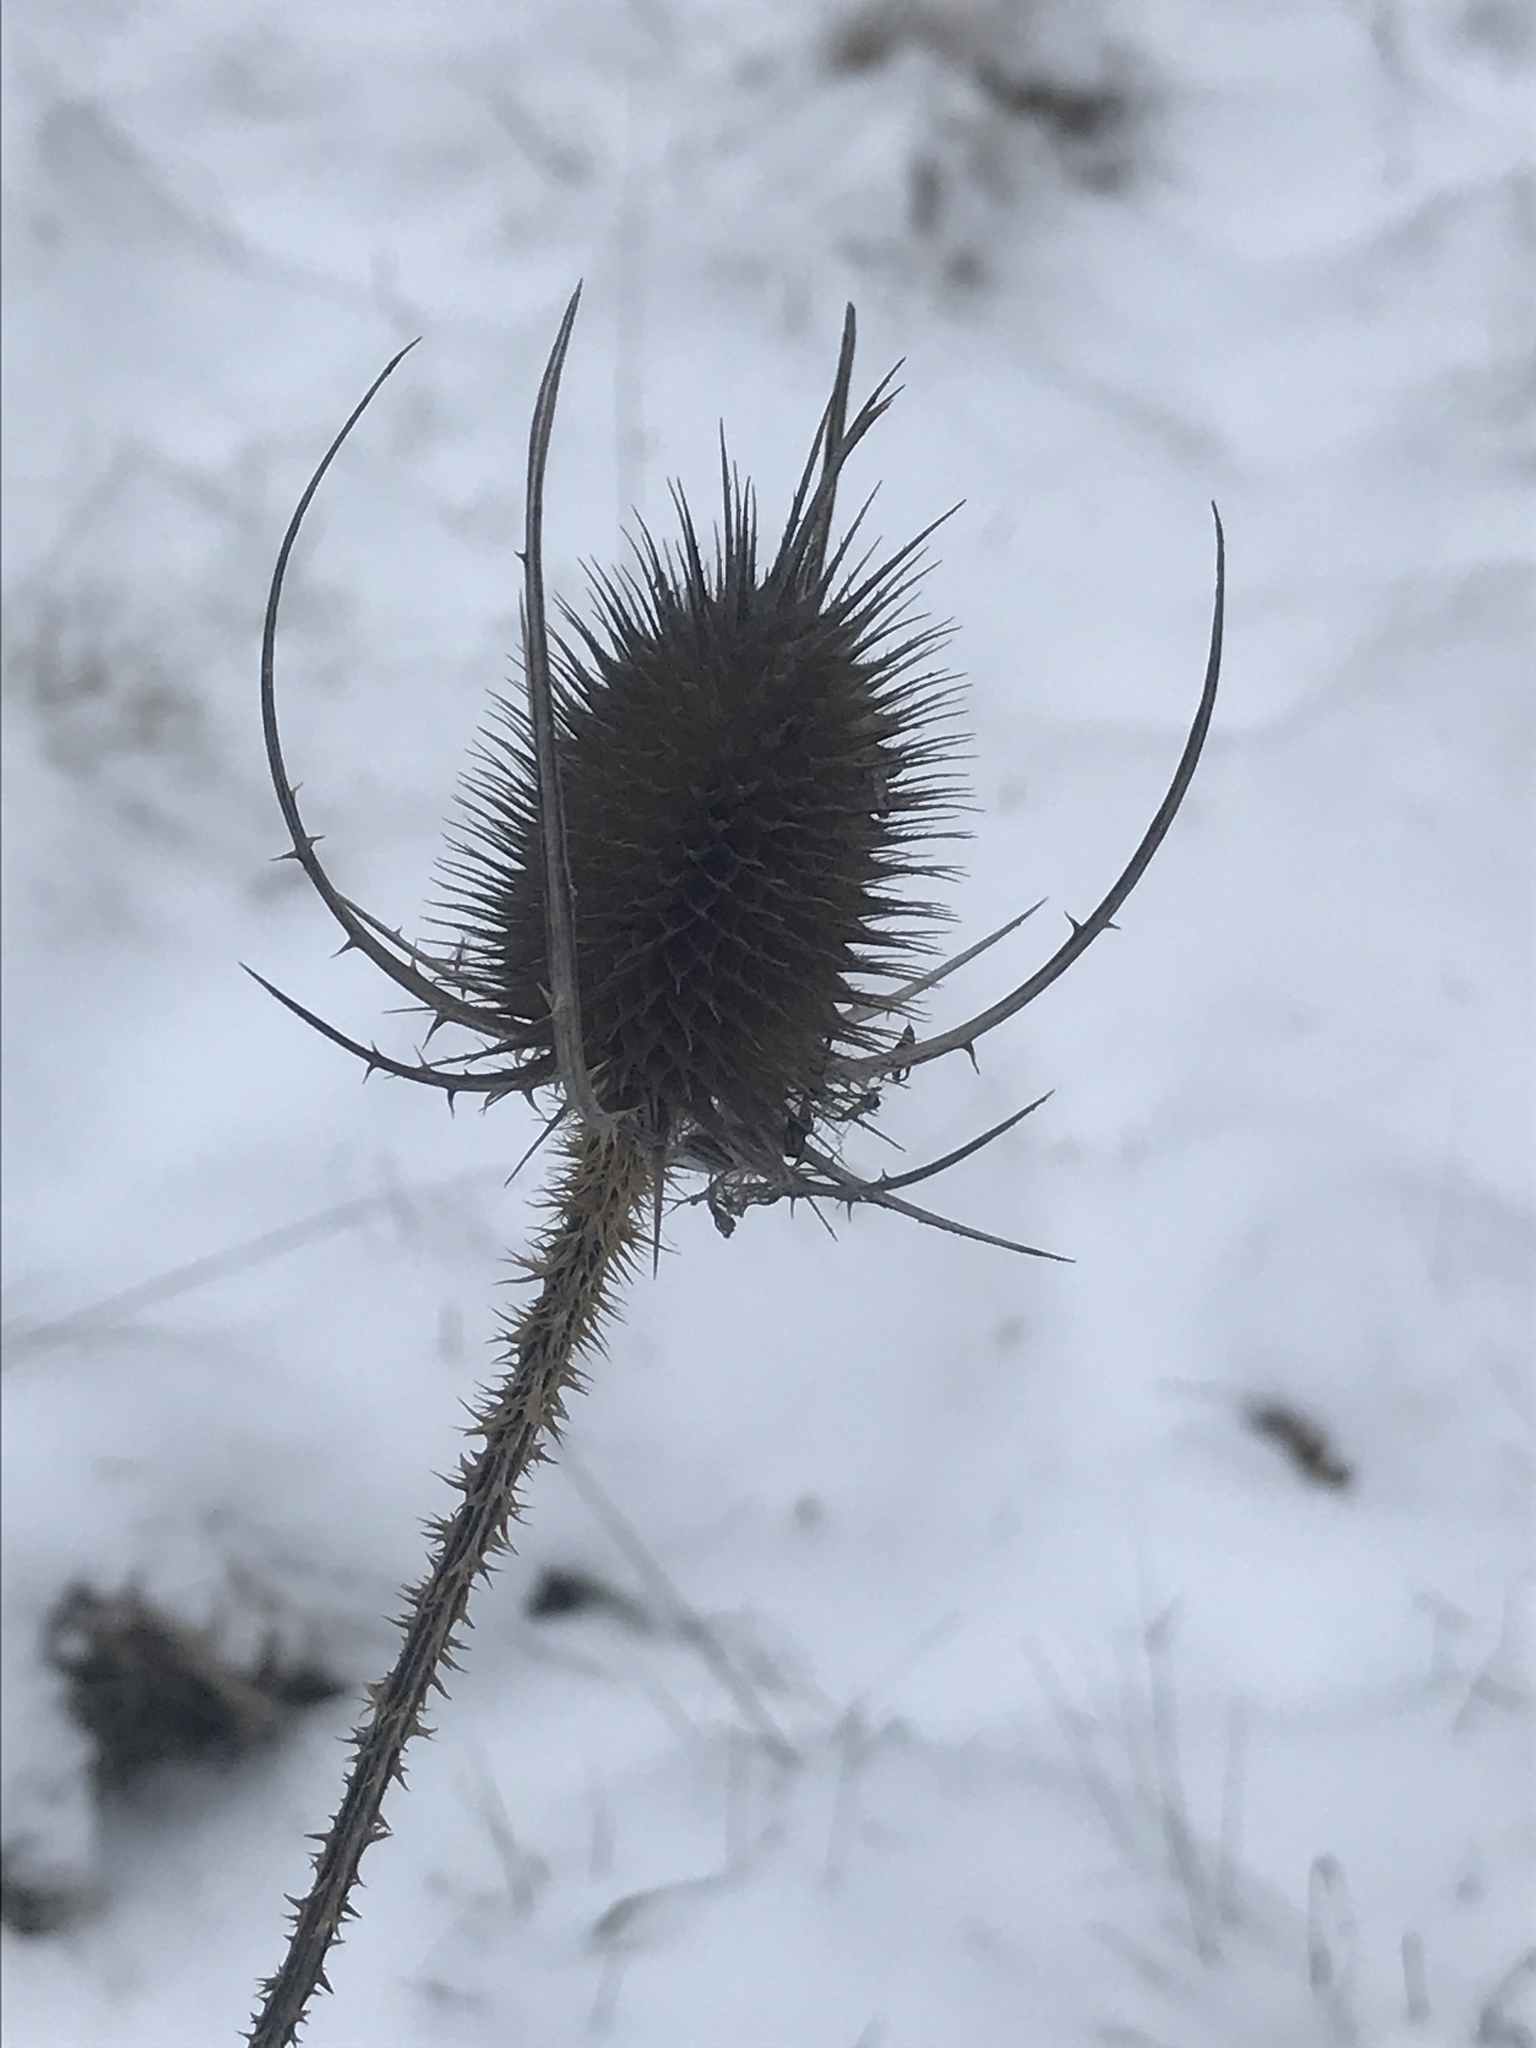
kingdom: Plantae
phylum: Tracheophyta
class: Magnoliopsida
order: Dipsacales
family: Caprifoliaceae
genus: Dipsacus
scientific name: Dipsacus fullonum
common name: Teasel
